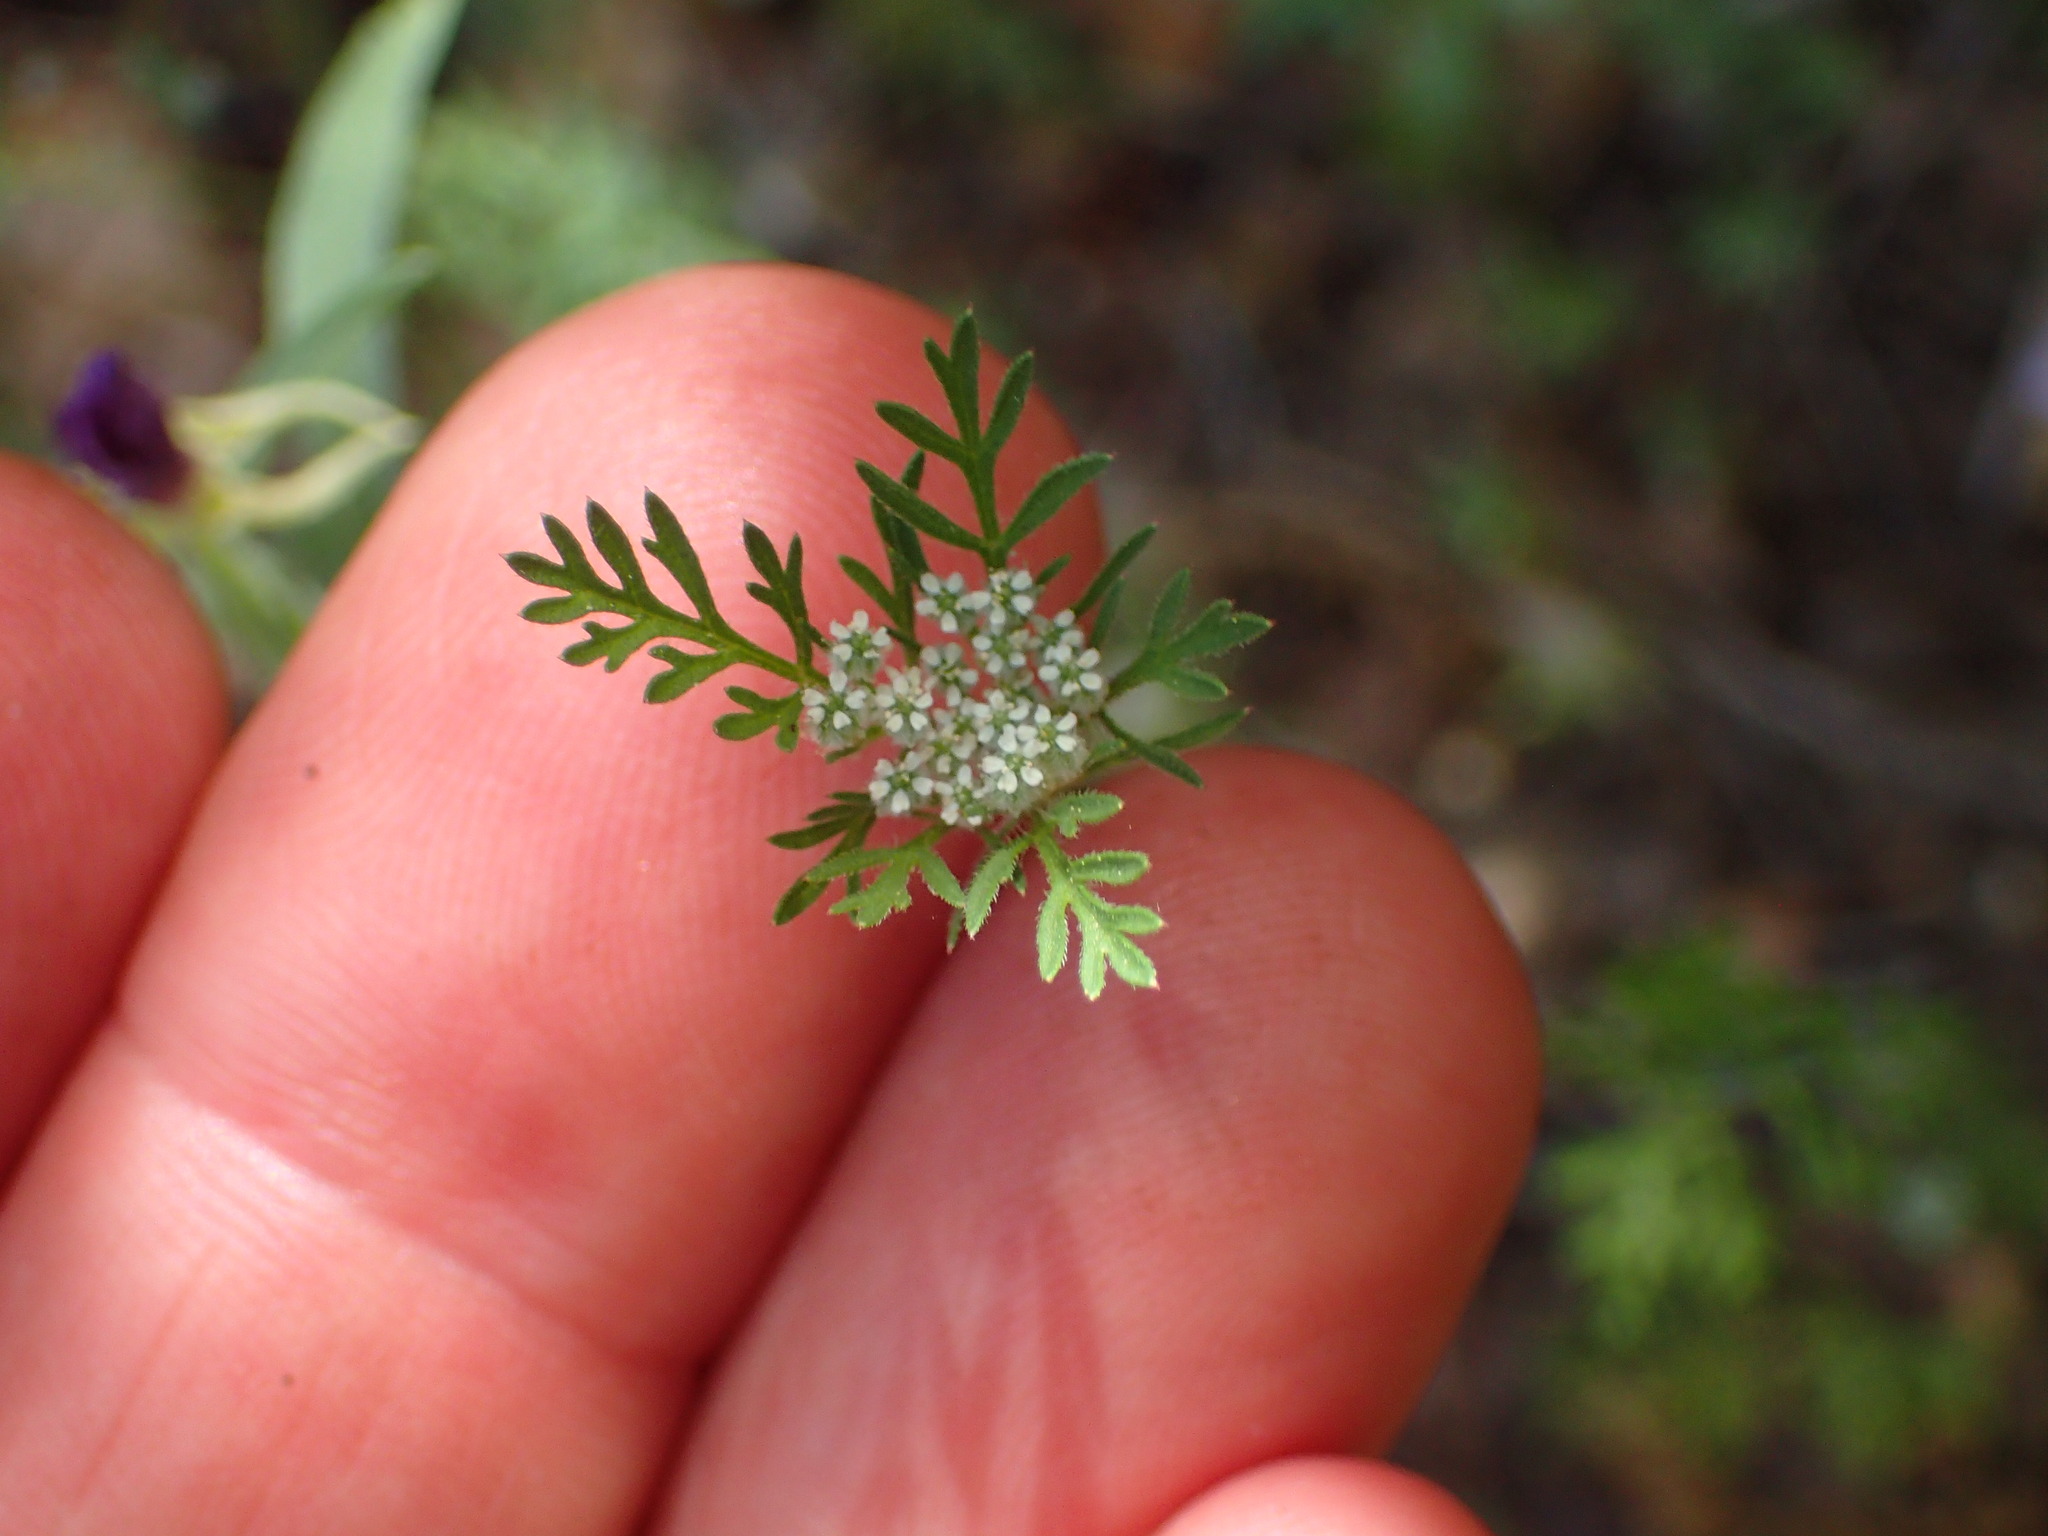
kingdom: Plantae
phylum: Tracheophyta
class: Magnoliopsida
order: Apiales
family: Apiaceae
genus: Daucus
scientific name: Daucus pusillus
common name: Southwest wild carrot
